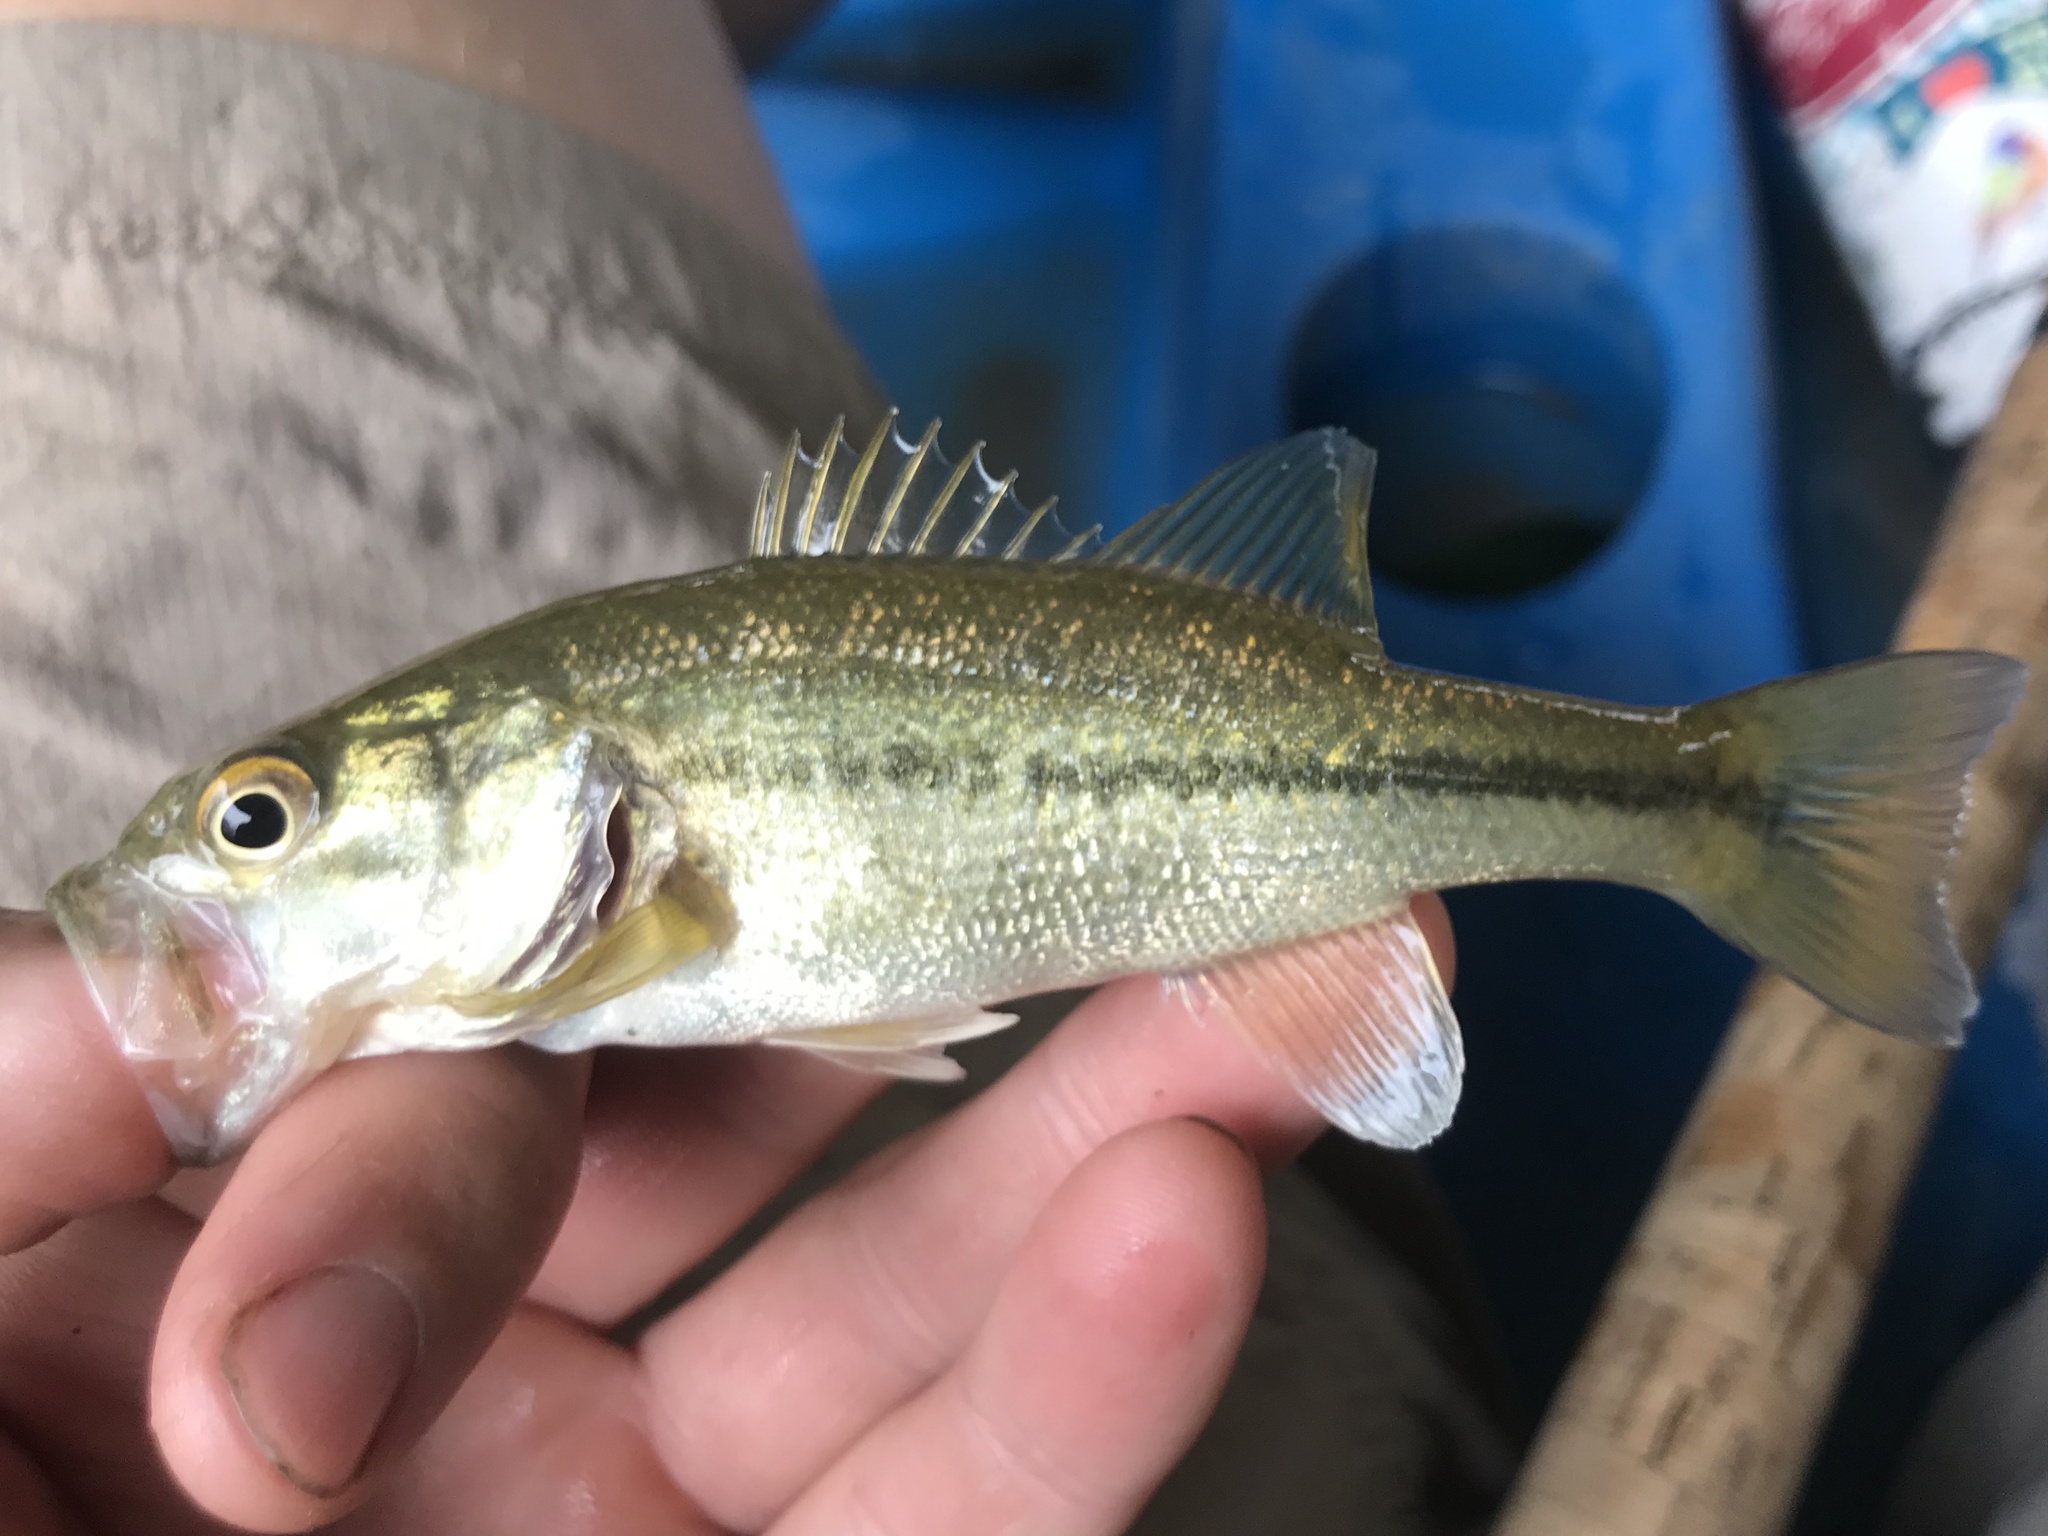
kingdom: Animalia
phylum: Chordata
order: Perciformes
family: Centrarchidae
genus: Micropterus
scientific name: Micropterus
